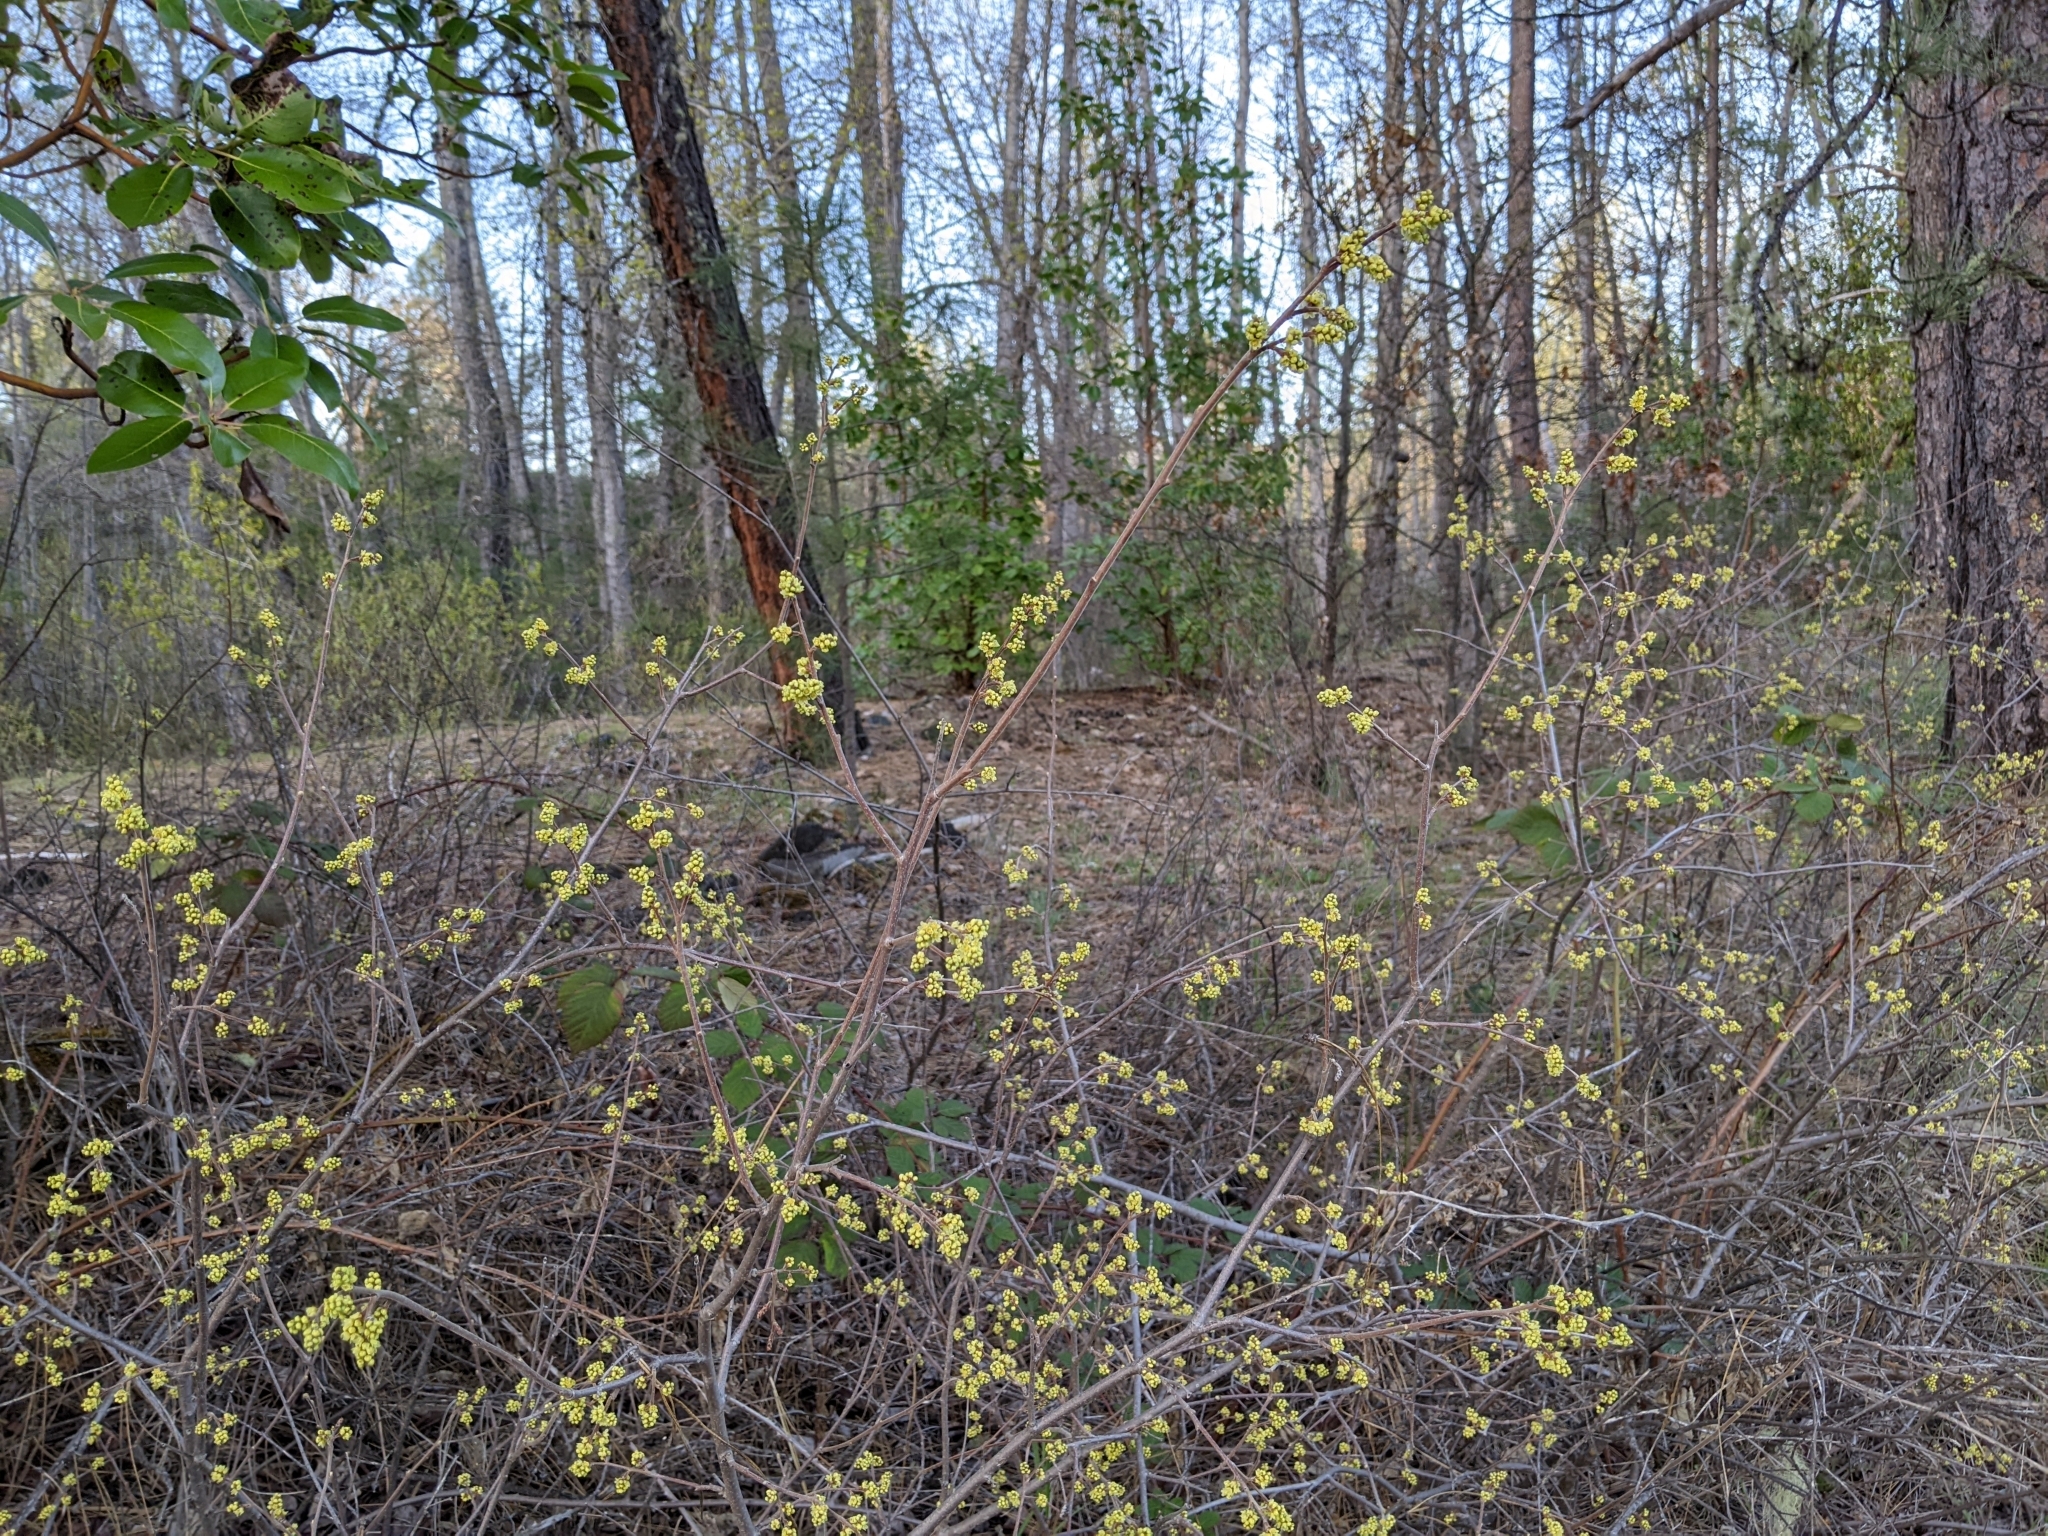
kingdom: Plantae
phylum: Tracheophyta
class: Magnoliopsida
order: Sapindales
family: Anacardiaceae
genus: Rhus
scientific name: Rhus aromatica
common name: Aromatic sumac
